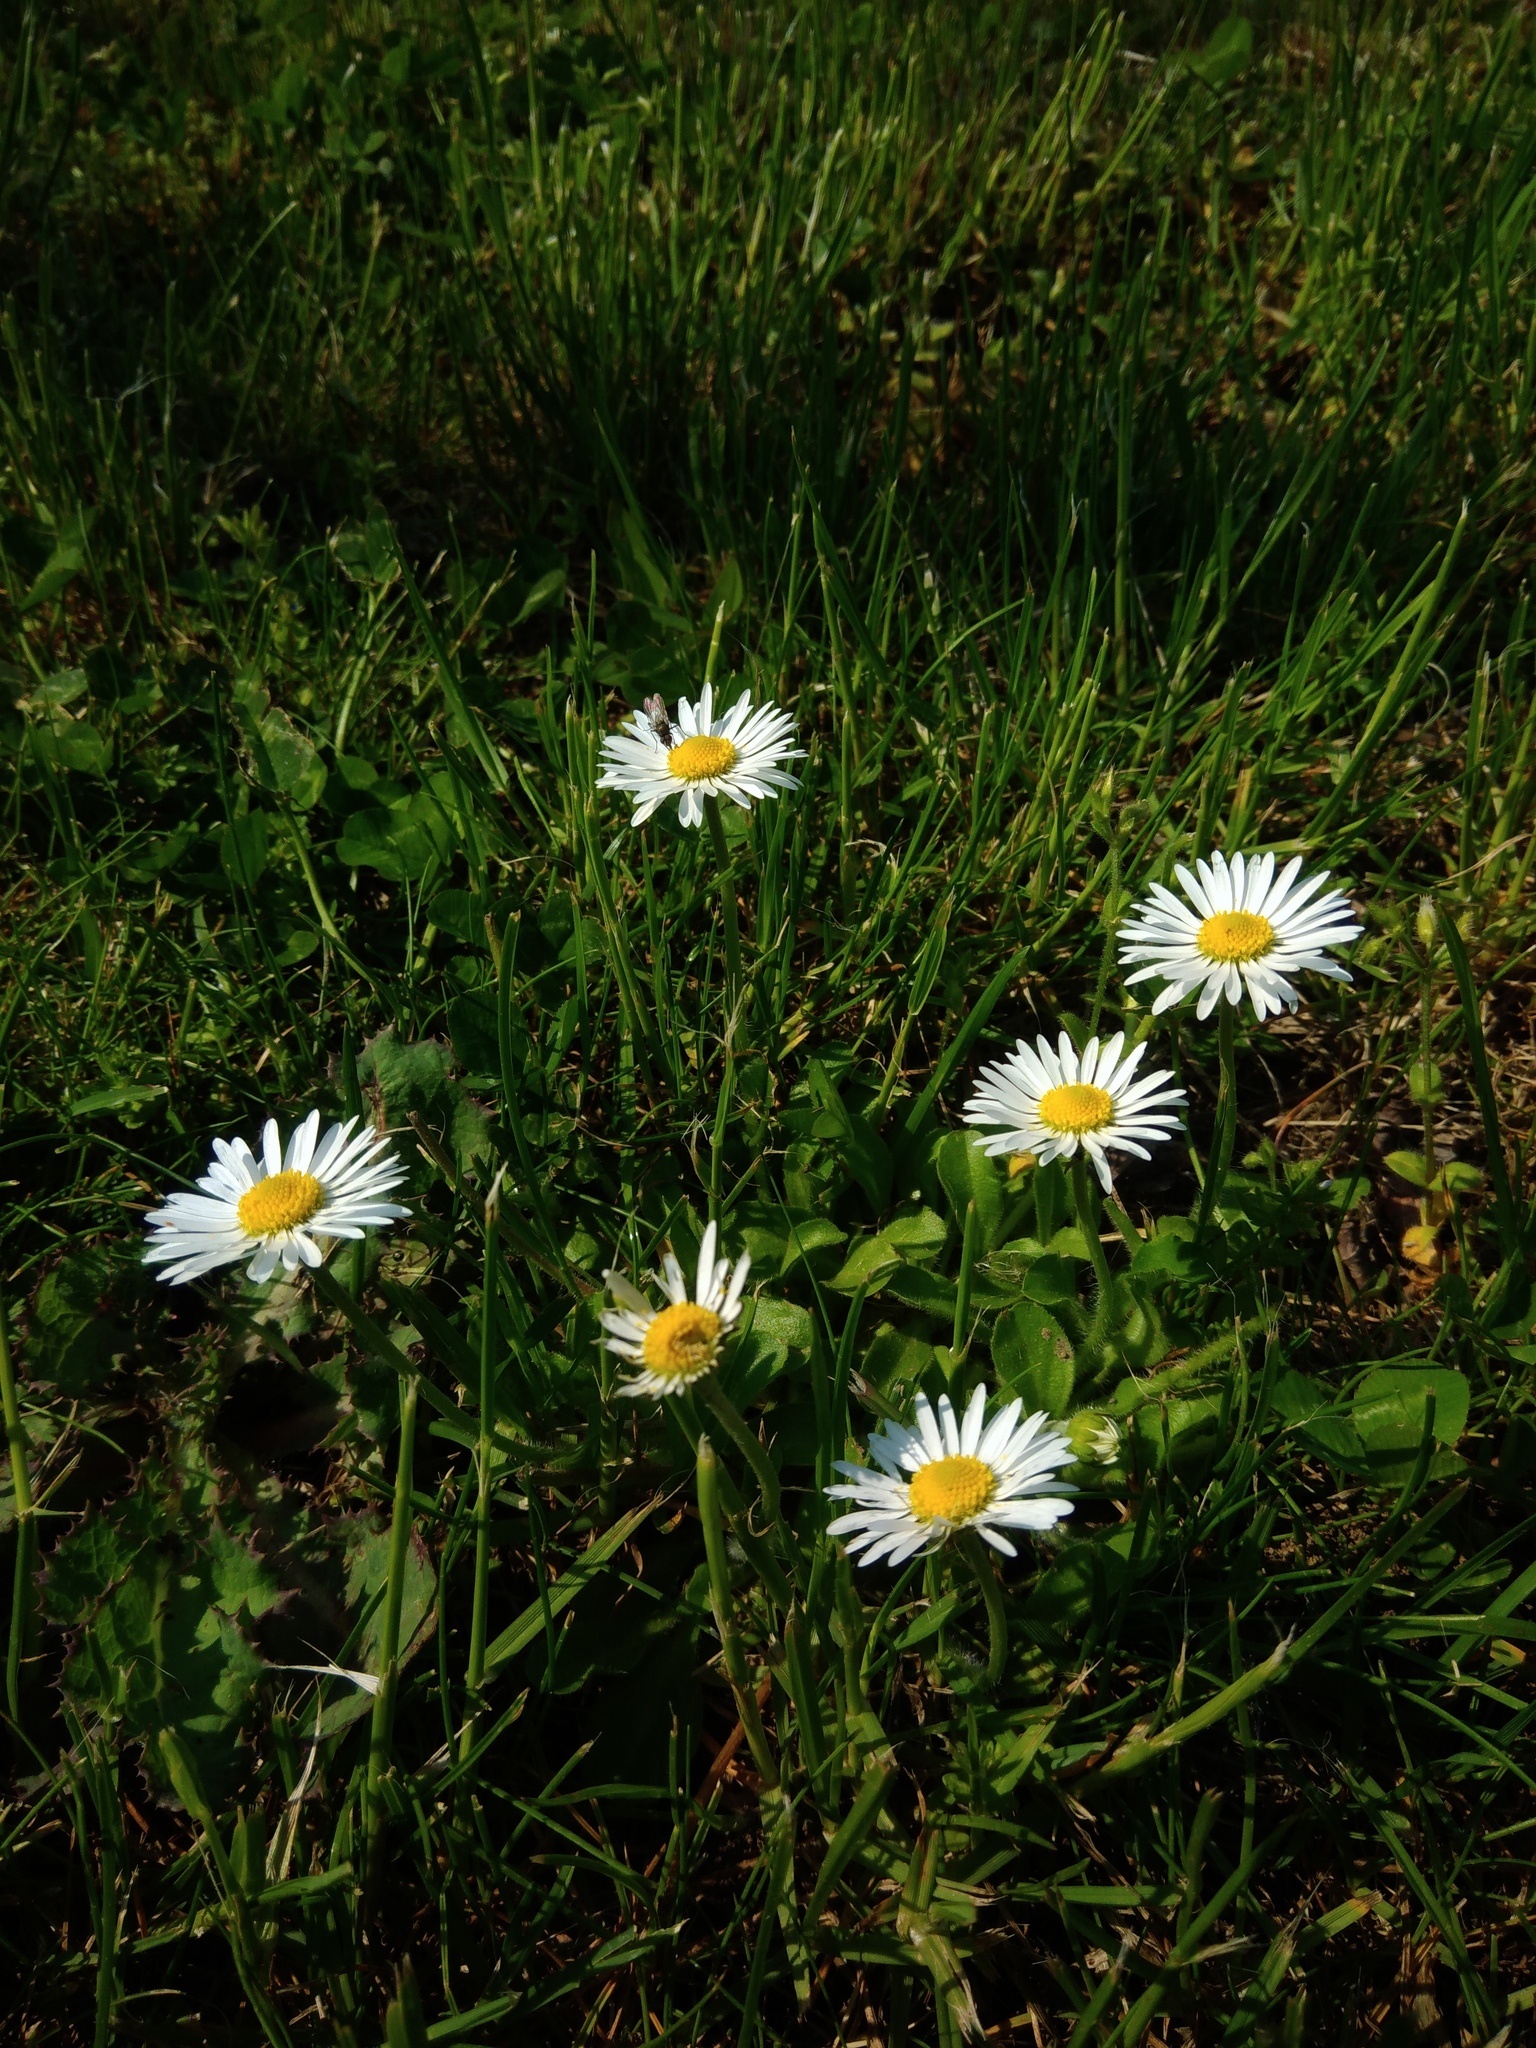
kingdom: Plantae
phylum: Tracheophyta
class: Magnoliopsida
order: Asterales
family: Asteraceae
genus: Bellis
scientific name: Bellis perennis
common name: Lawndaisy
